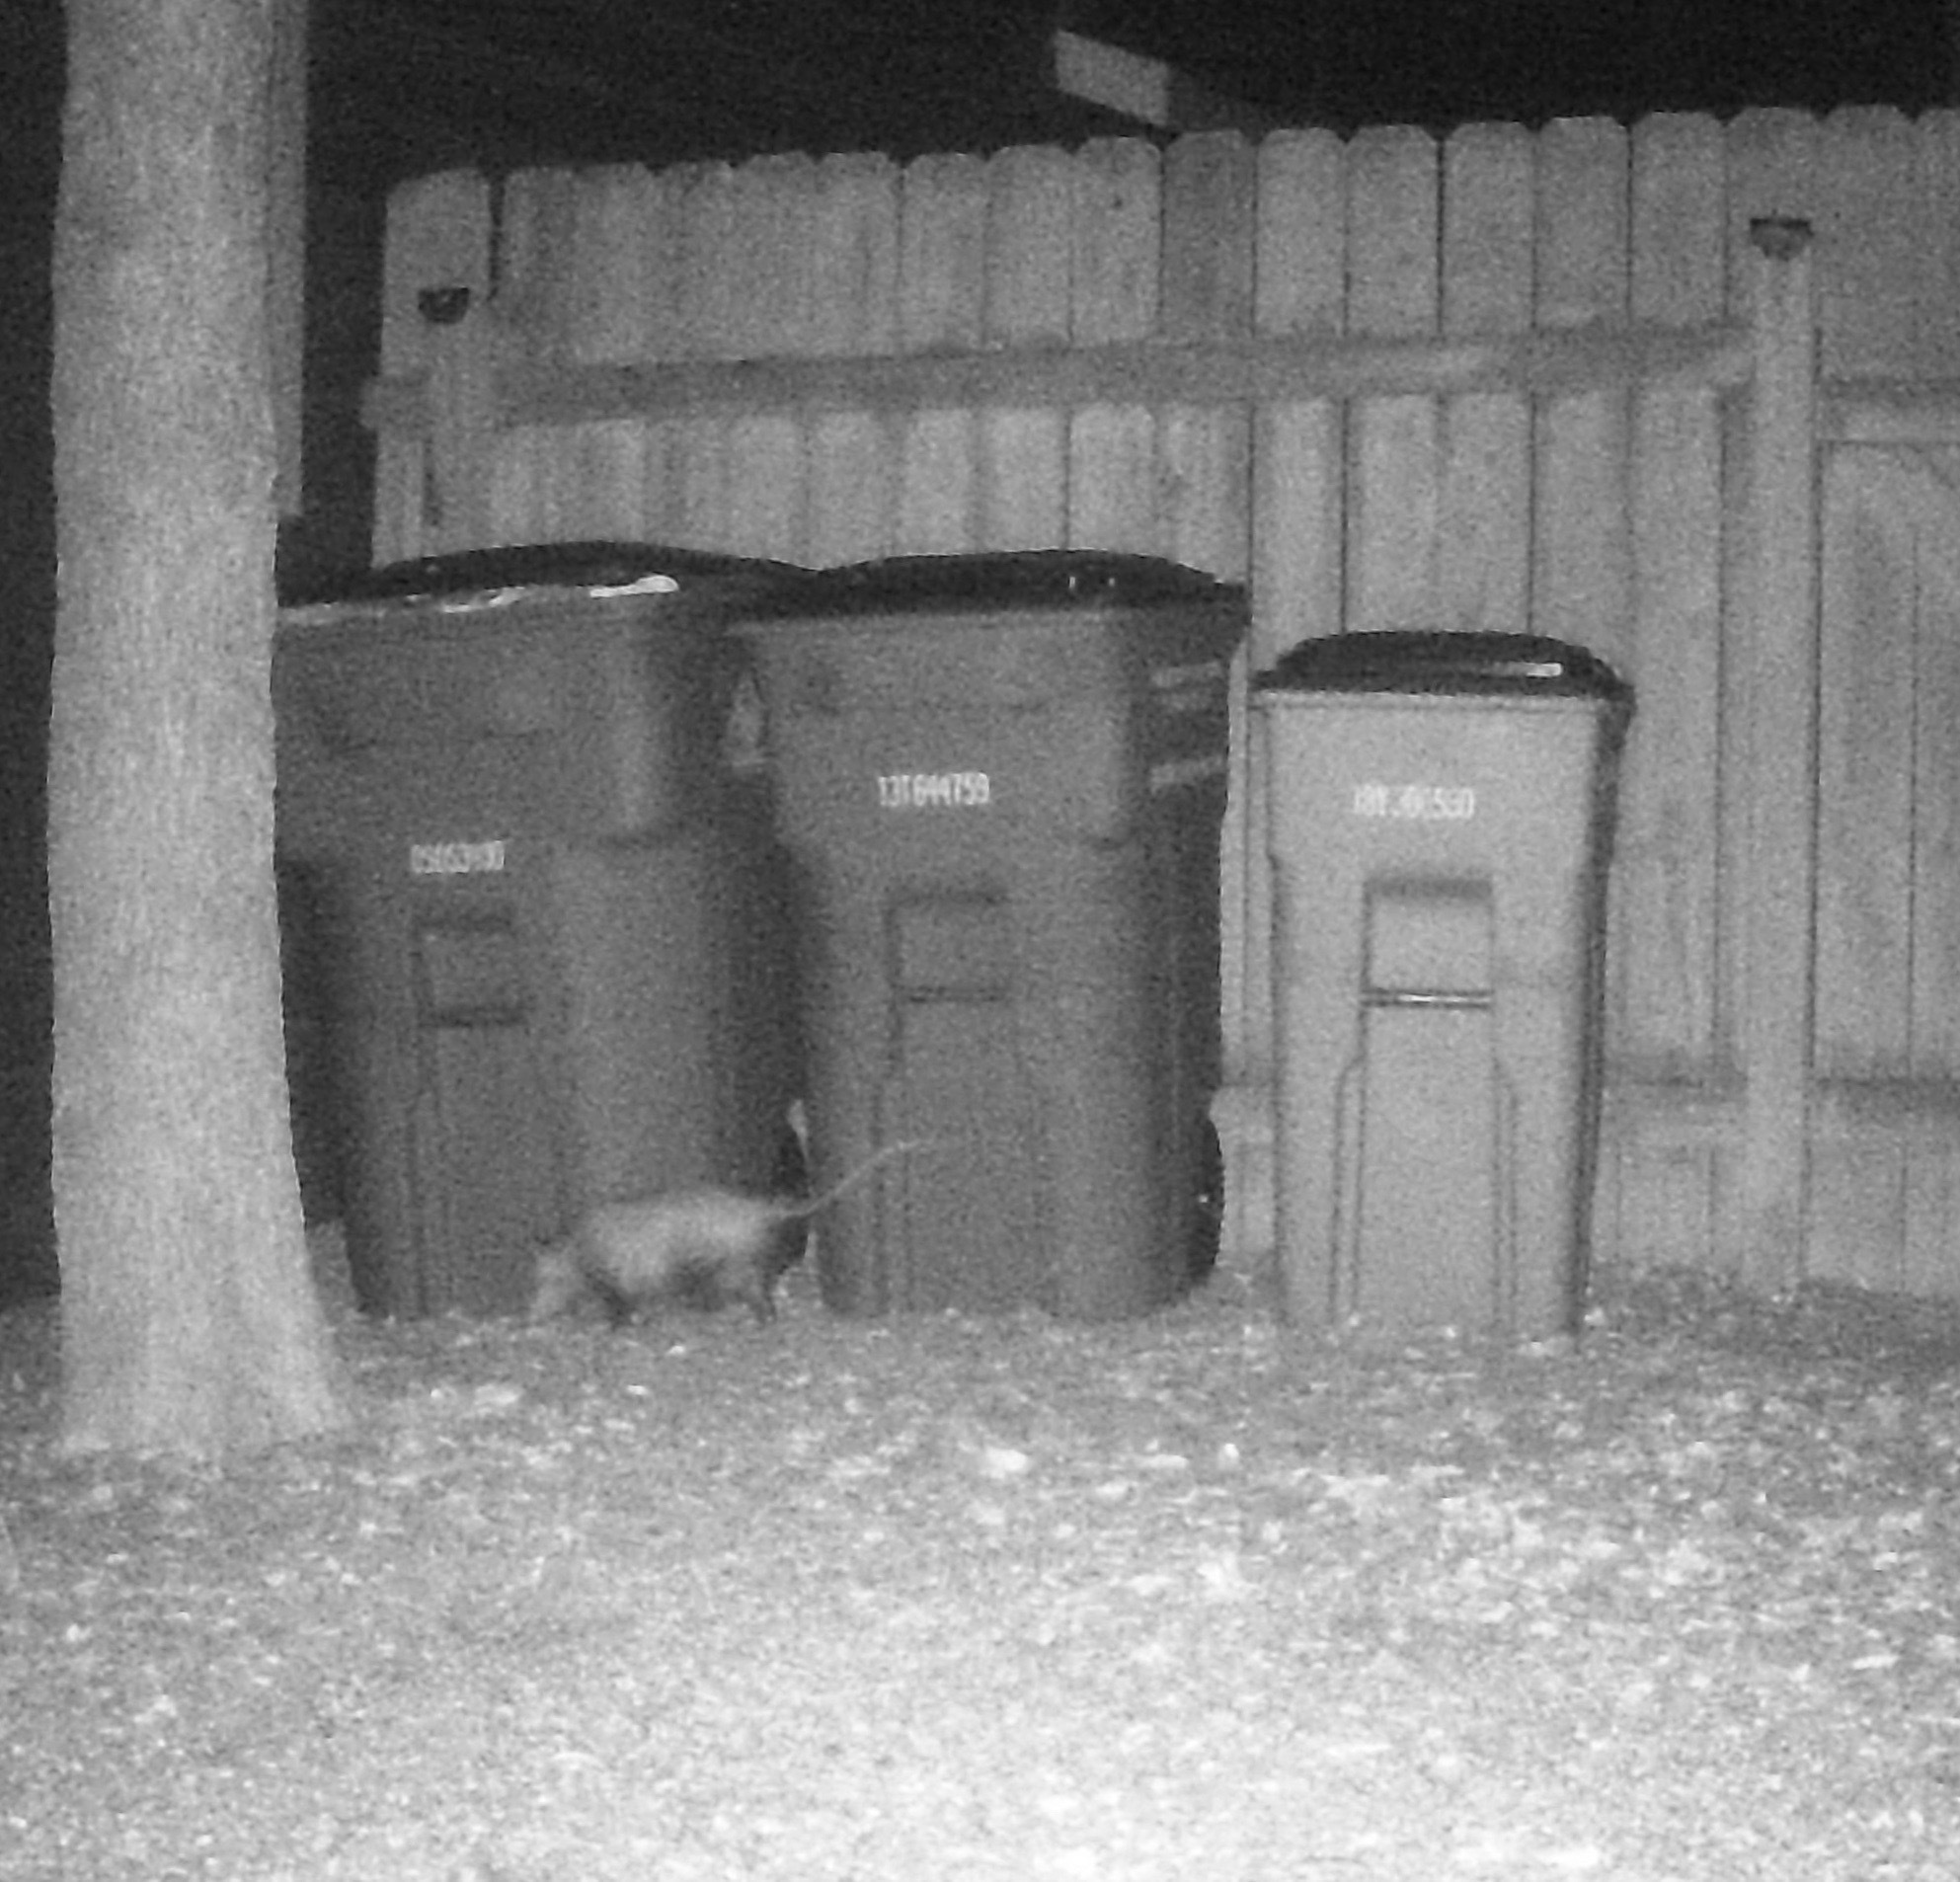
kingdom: Animalia
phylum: Chordata
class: Mammalia
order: Didelphimorphia
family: Didelphidae
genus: Didelphis
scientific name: Didelphis virginiana
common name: Virginia opossum
